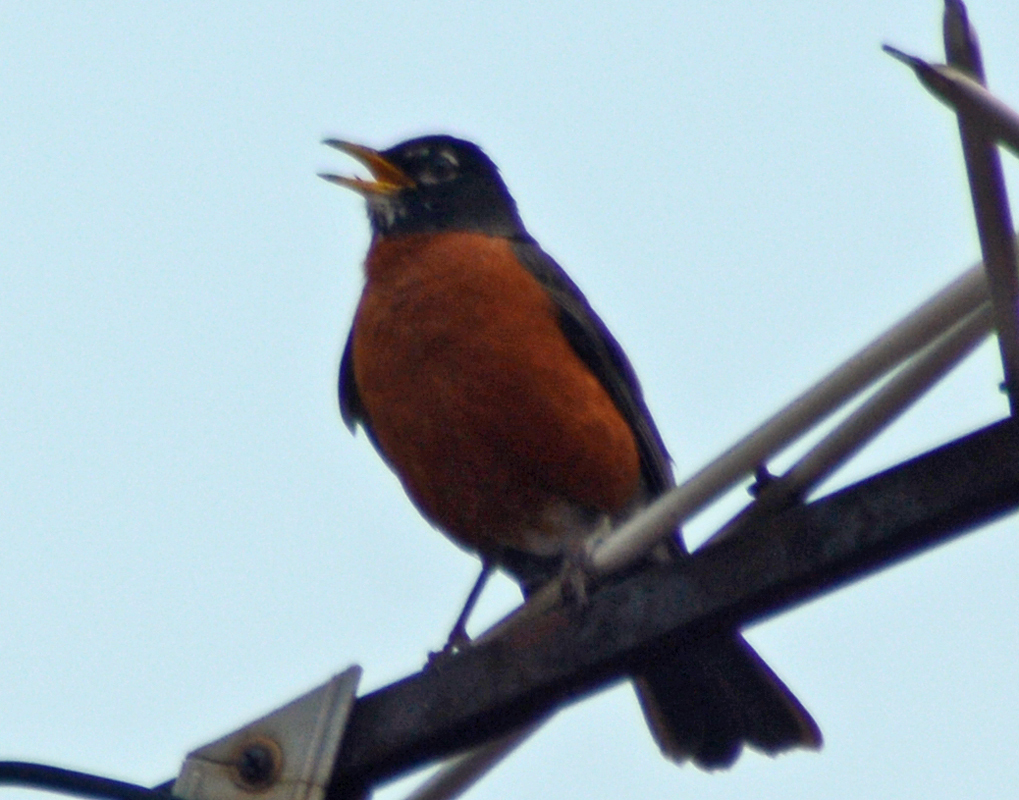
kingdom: Animalia
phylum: Chordata
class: Aves
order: Passeriformes
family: Turdidae
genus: Turdus
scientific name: Turdus migratorius
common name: American robin
